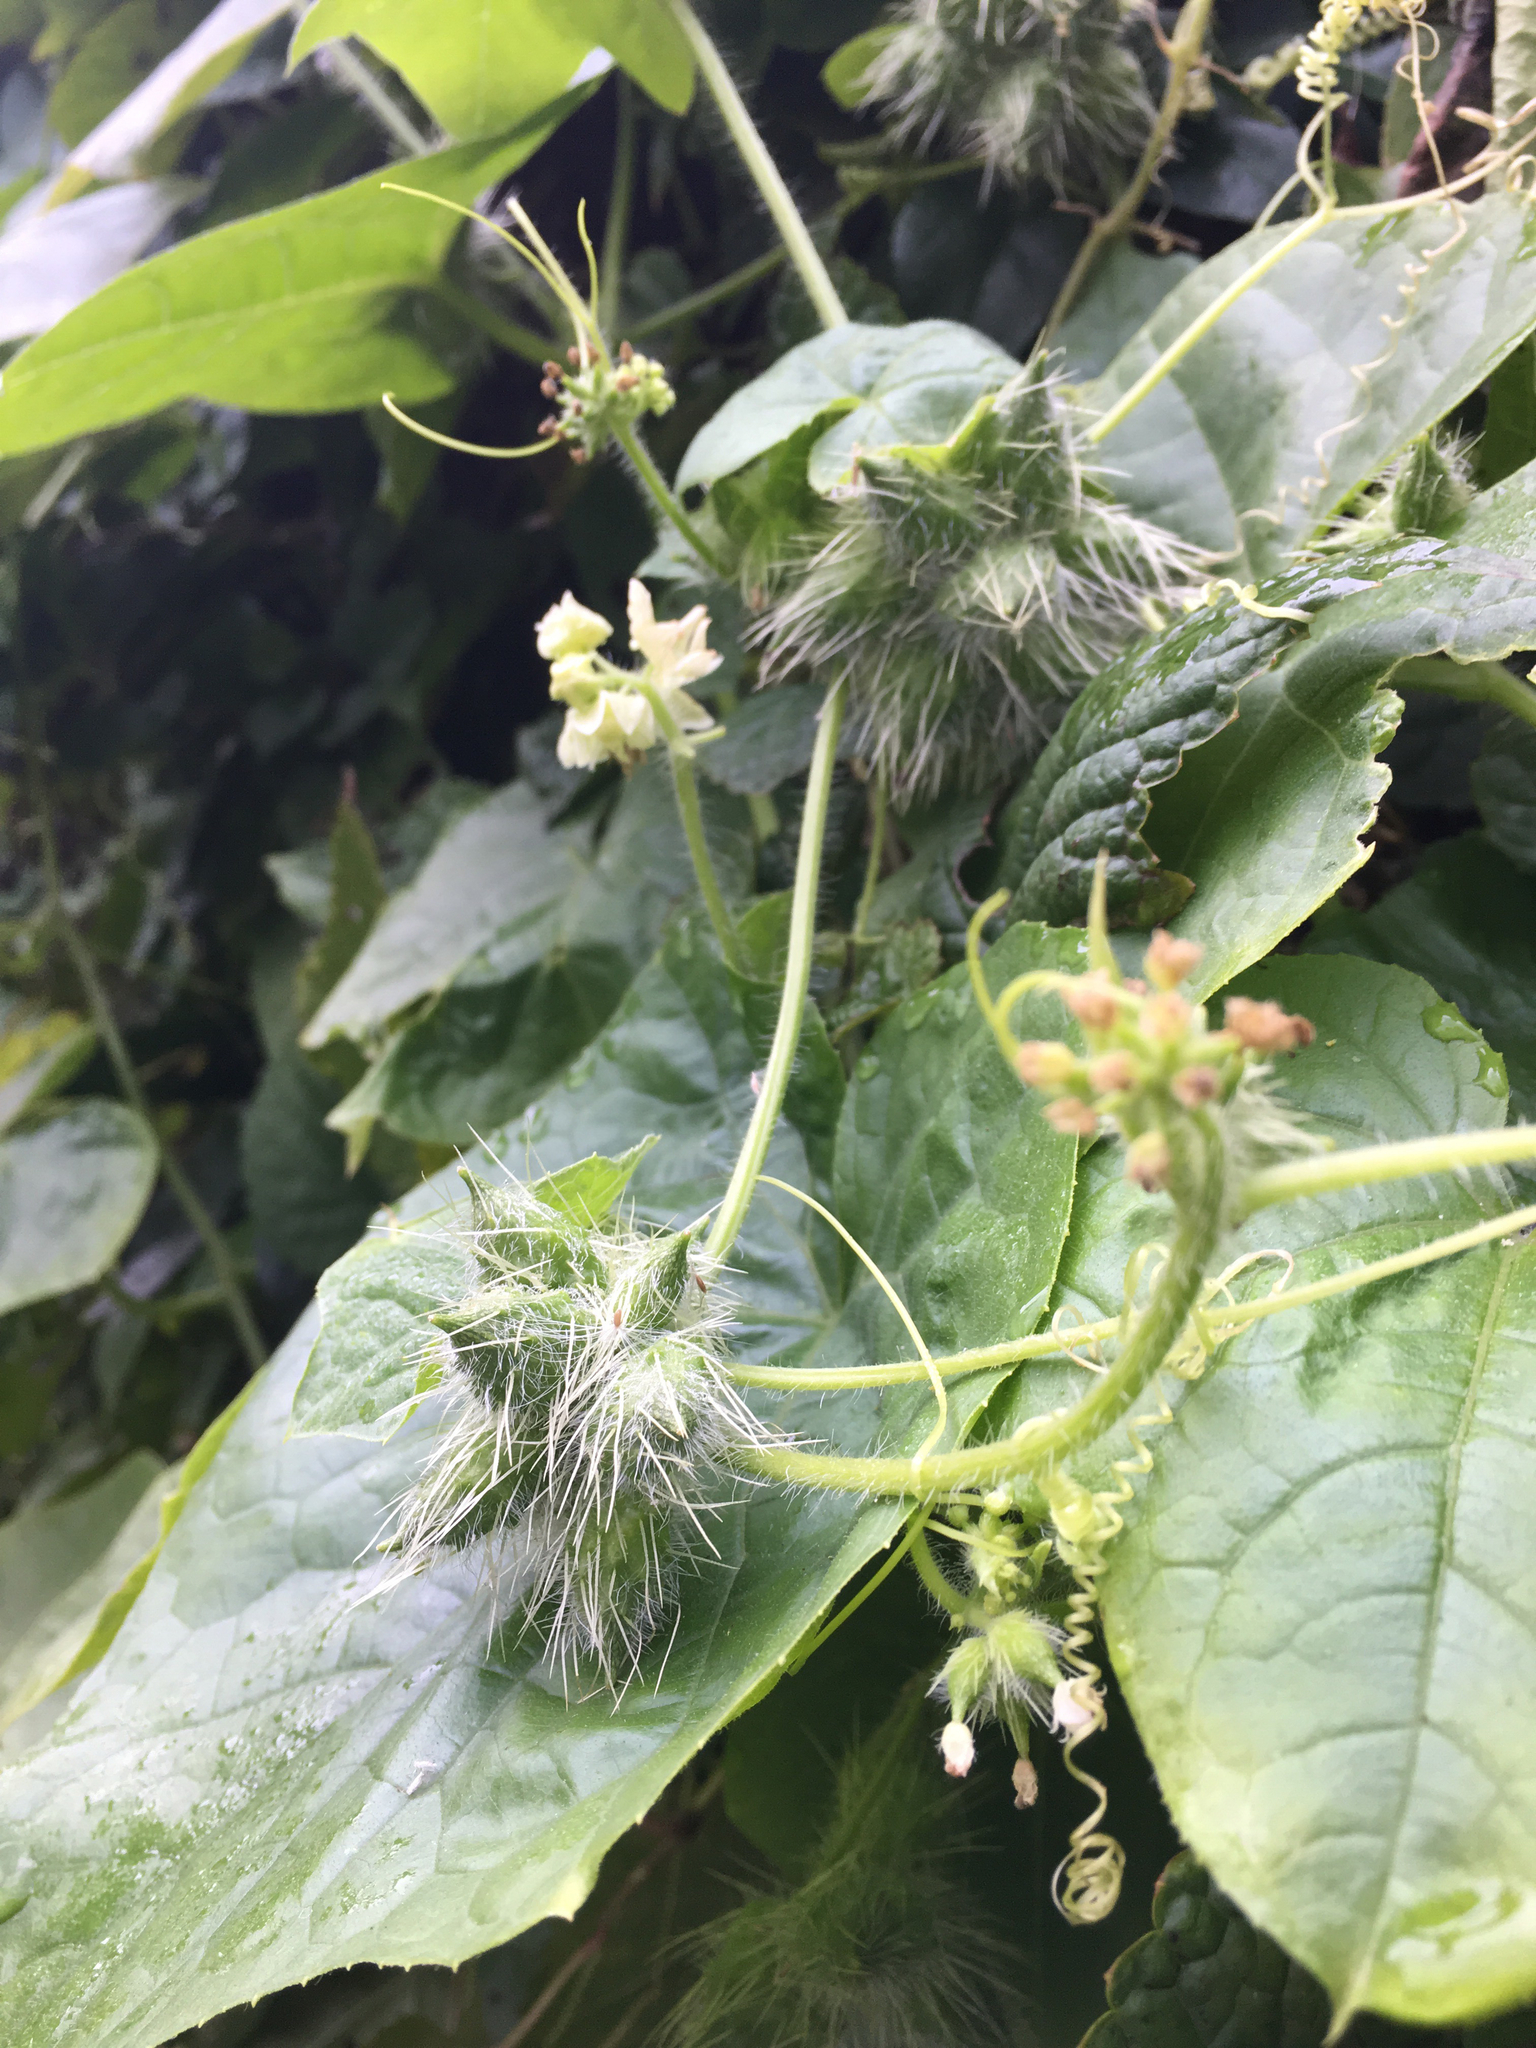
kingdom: Plantae
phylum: Tracheophyta
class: Magnoliopsida
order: Cucurbitales
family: Cucurbitaceae
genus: Sicyos
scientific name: Sicyos angulatus
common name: Angled burr cucumber
